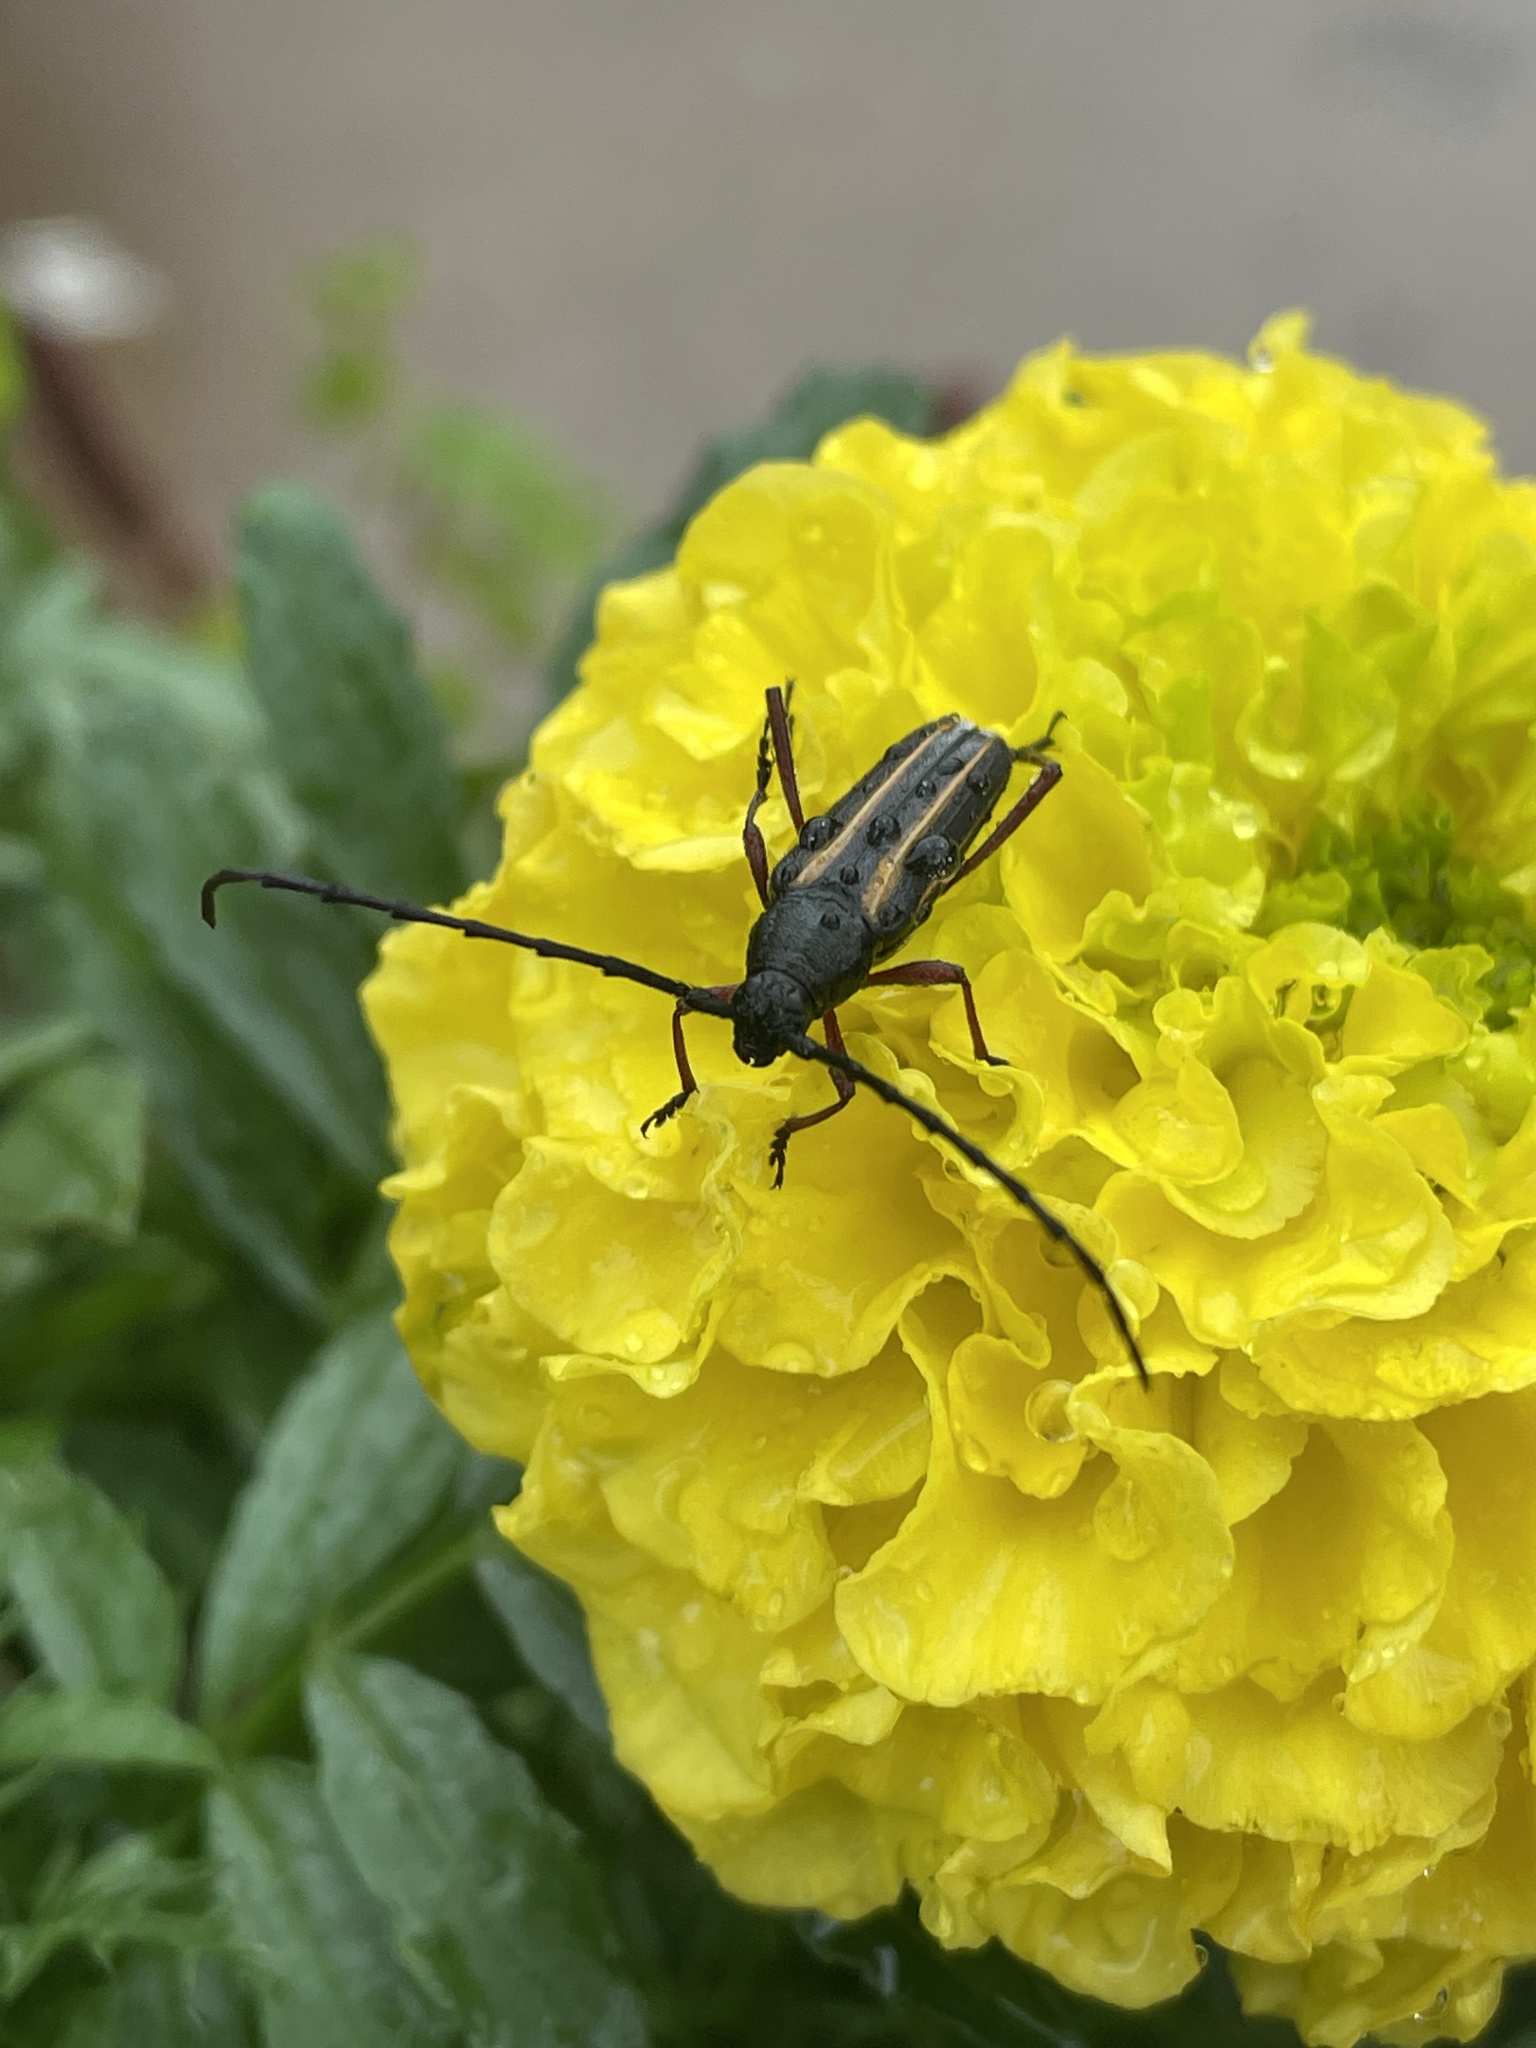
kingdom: Animalia
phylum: Arthropoda
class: Insecta
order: Coleoptera
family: Cerambycidae
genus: Sphaenothecus
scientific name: Sphaenothecus bilineatus
